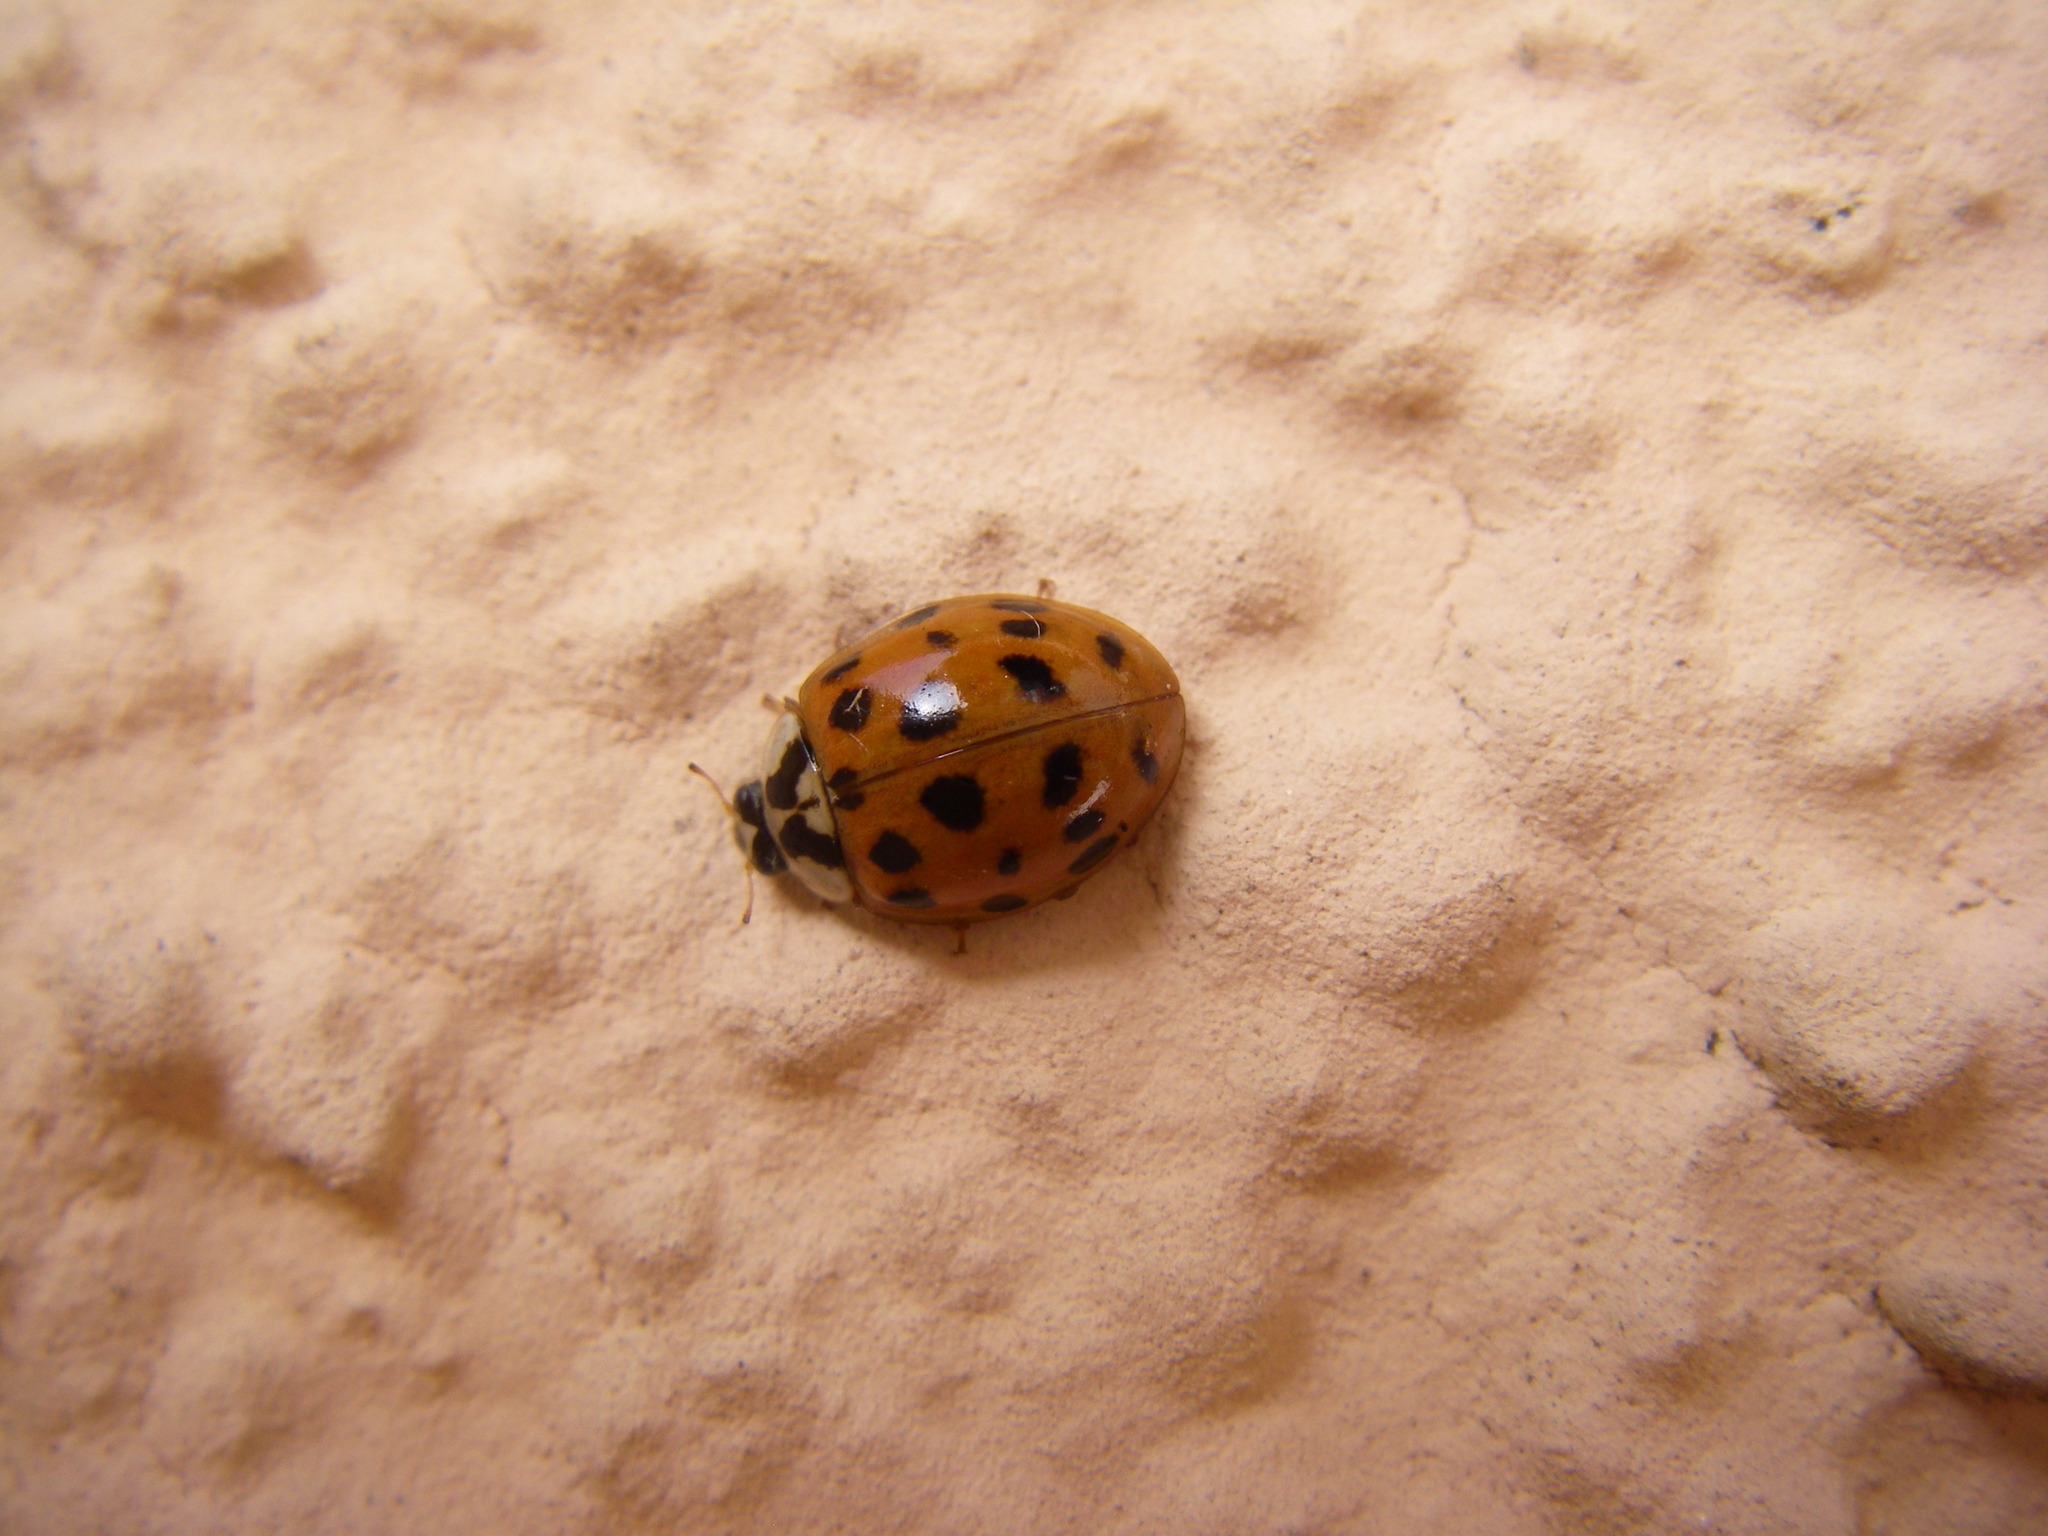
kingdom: Animalia
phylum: Arthropoda
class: Insecta
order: Coleoptera
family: Coccinellidae
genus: Harmonia
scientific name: Harmonia axyridis
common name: Harlequin ladybird
